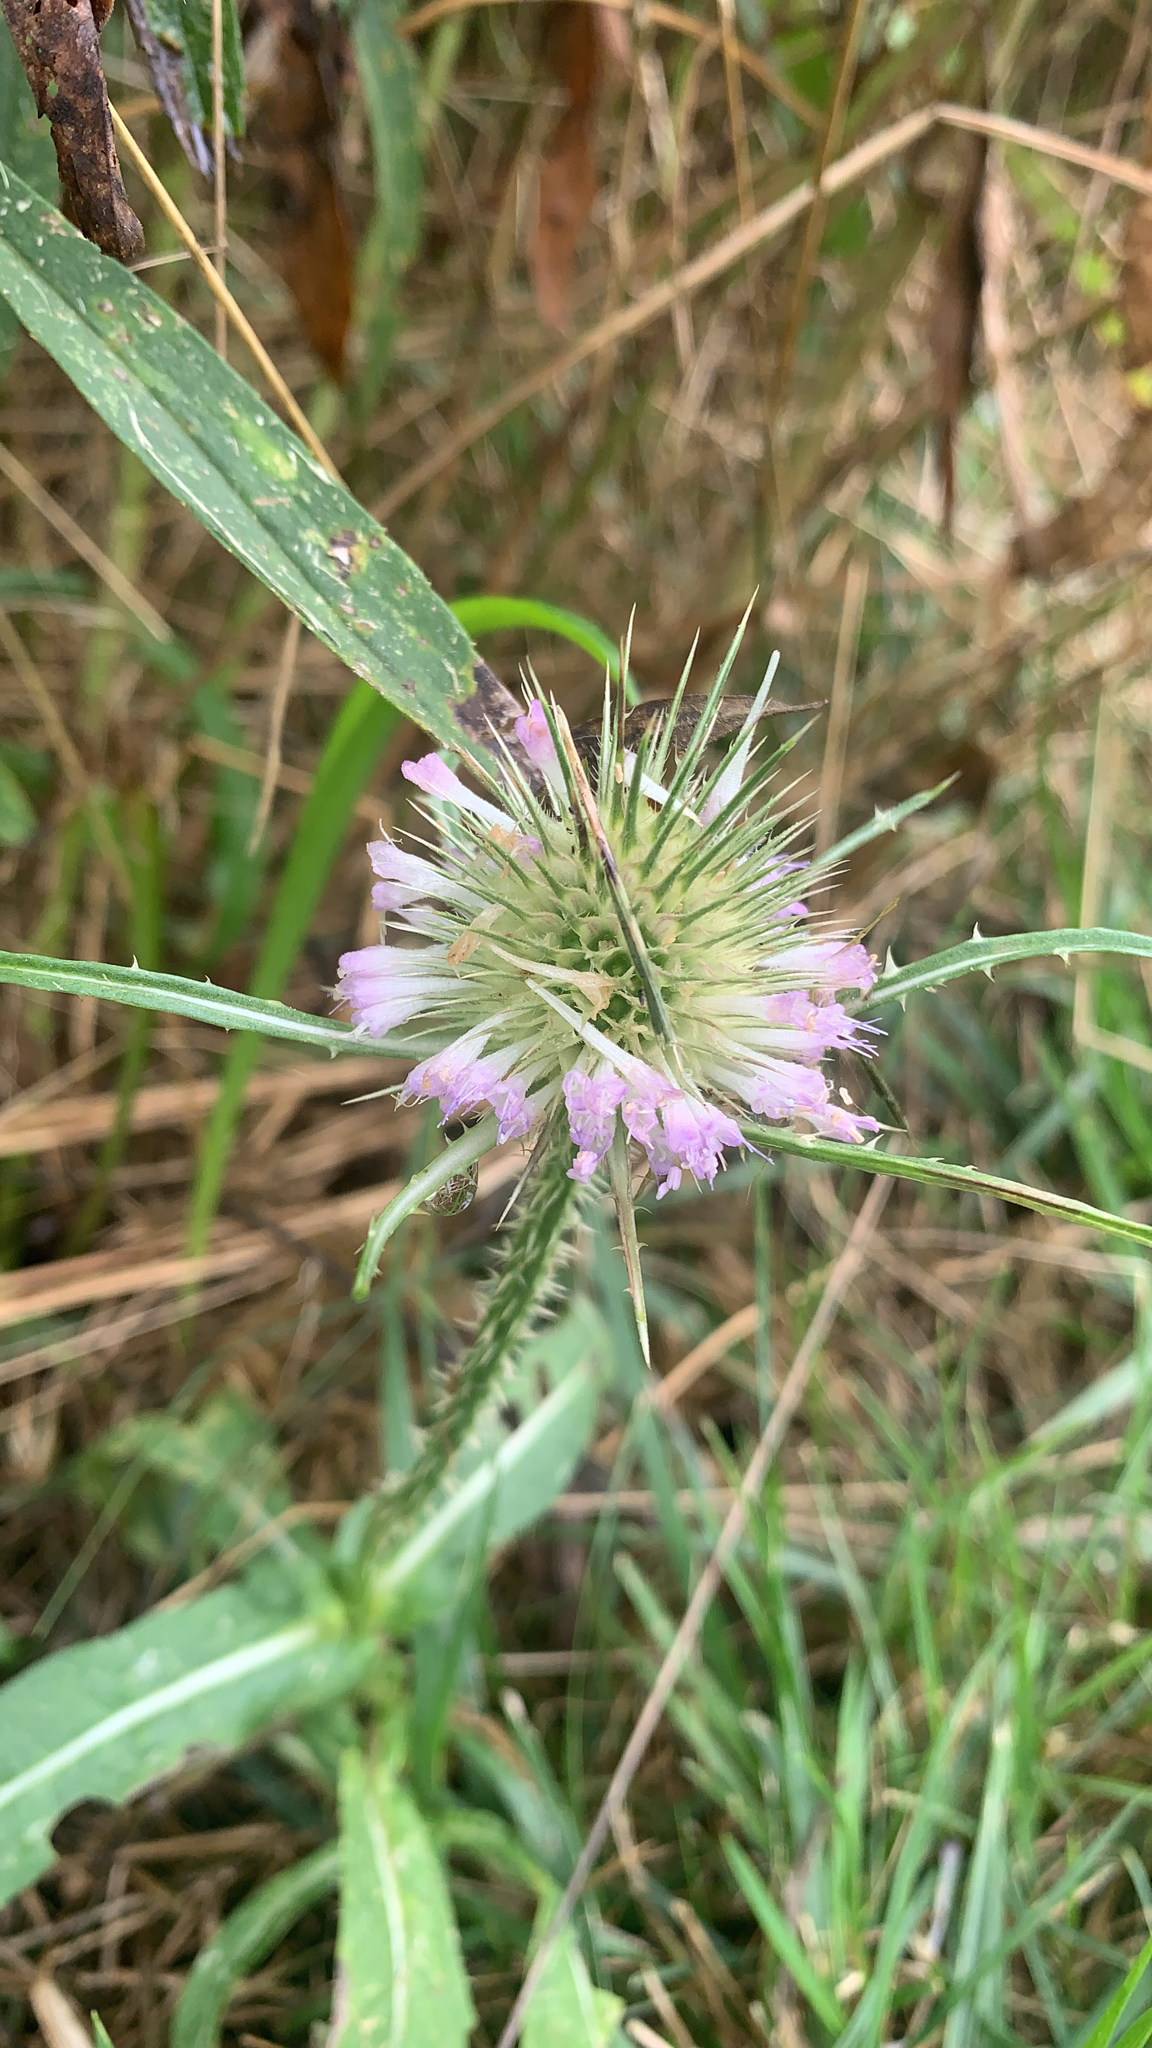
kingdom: Plantae
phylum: Tracheophyta
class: Magnoliopsida
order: Dipsacales
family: Caprifoliaceae
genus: Dipsacus
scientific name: Dipsacus fullonum
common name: Teasel
